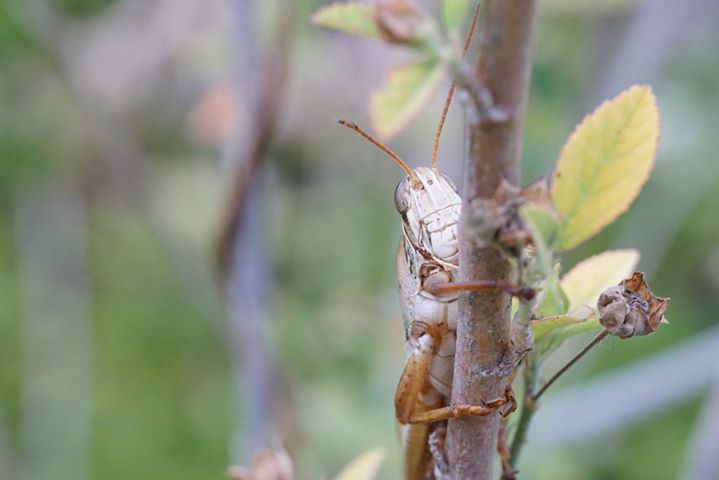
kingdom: Animalia
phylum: Arthropoda
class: Insecta
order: Orthoptera
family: Acrididae
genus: Schistocerca
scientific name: Schistocerca americana
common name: American bird locust
